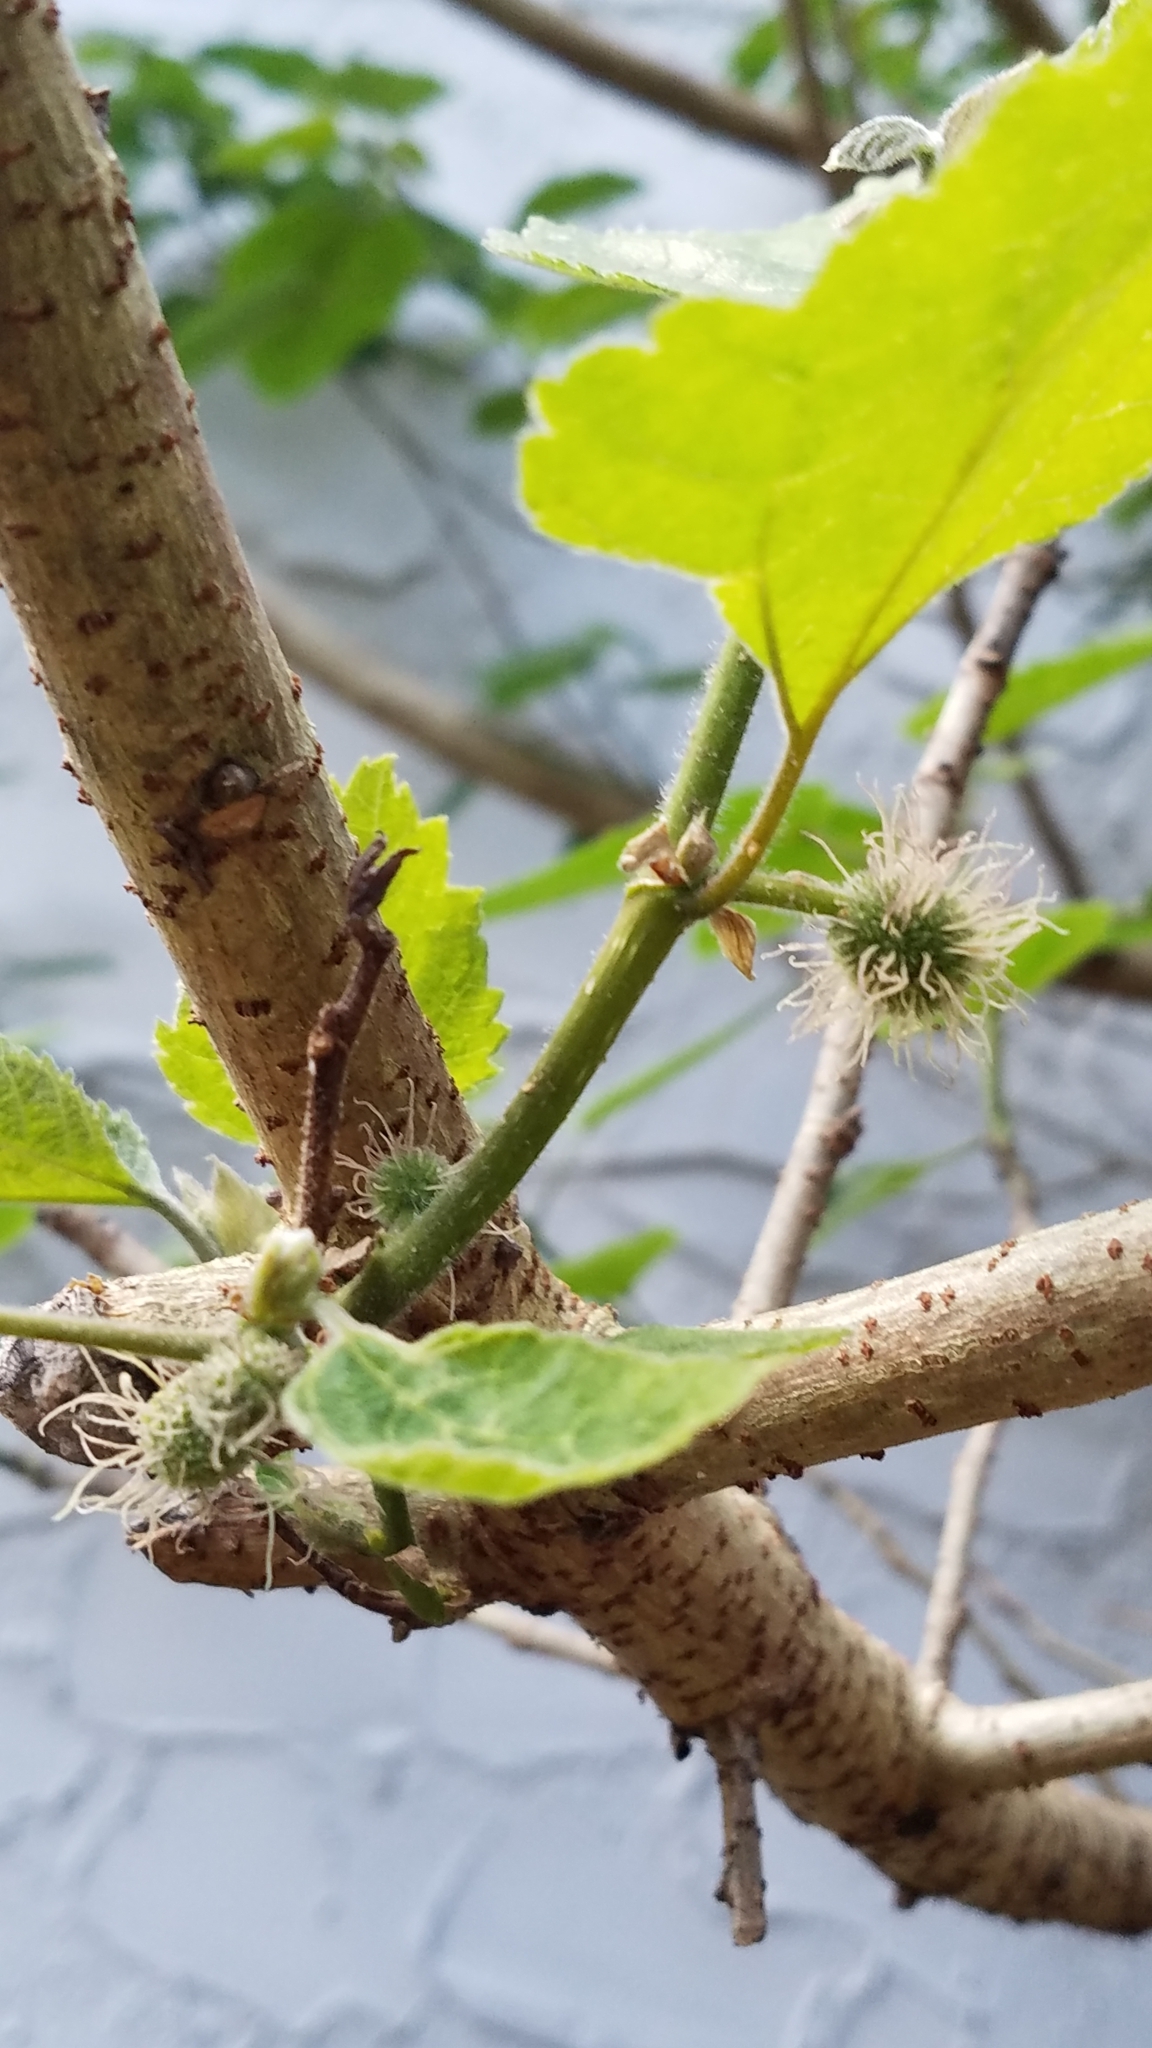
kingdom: Plantae
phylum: Tracheophyta
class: Magnoliopsida
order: Rosales
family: Moraceae
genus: Broussonetia
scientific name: Broussonetia papyrifera
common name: Paper mulberry
